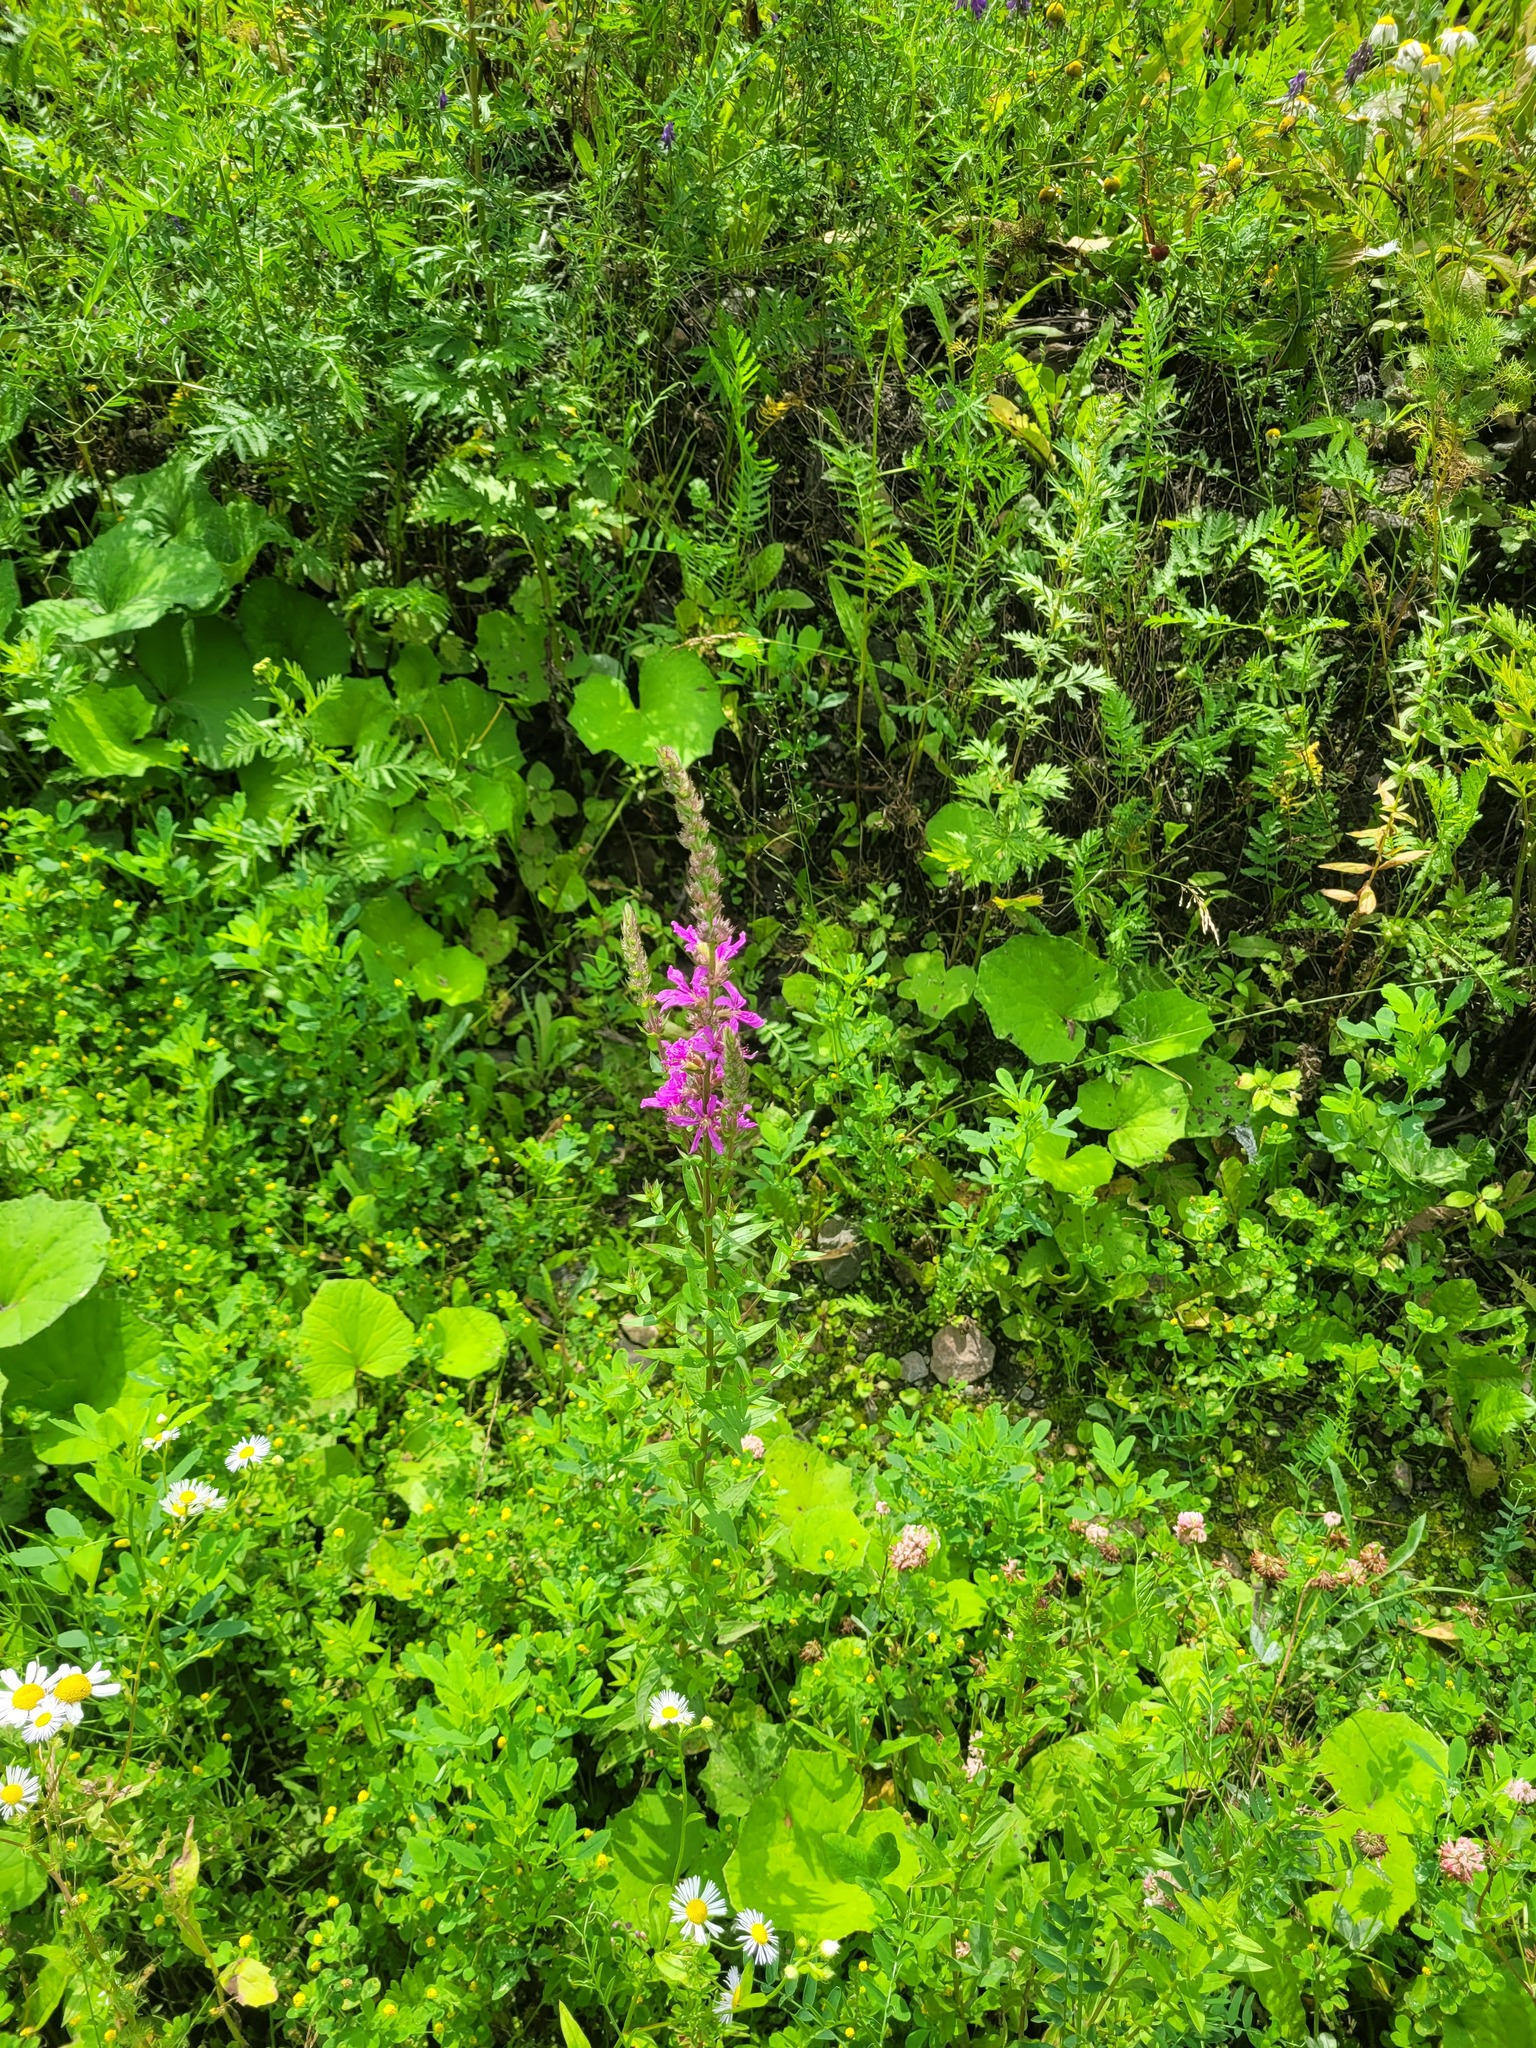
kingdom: Plantae
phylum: Tracheophyta
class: Magnoliopsida
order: Myrtales
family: Lythraceae
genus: Lythrum
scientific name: Lythrum salicaria
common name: Purple loosestrife
